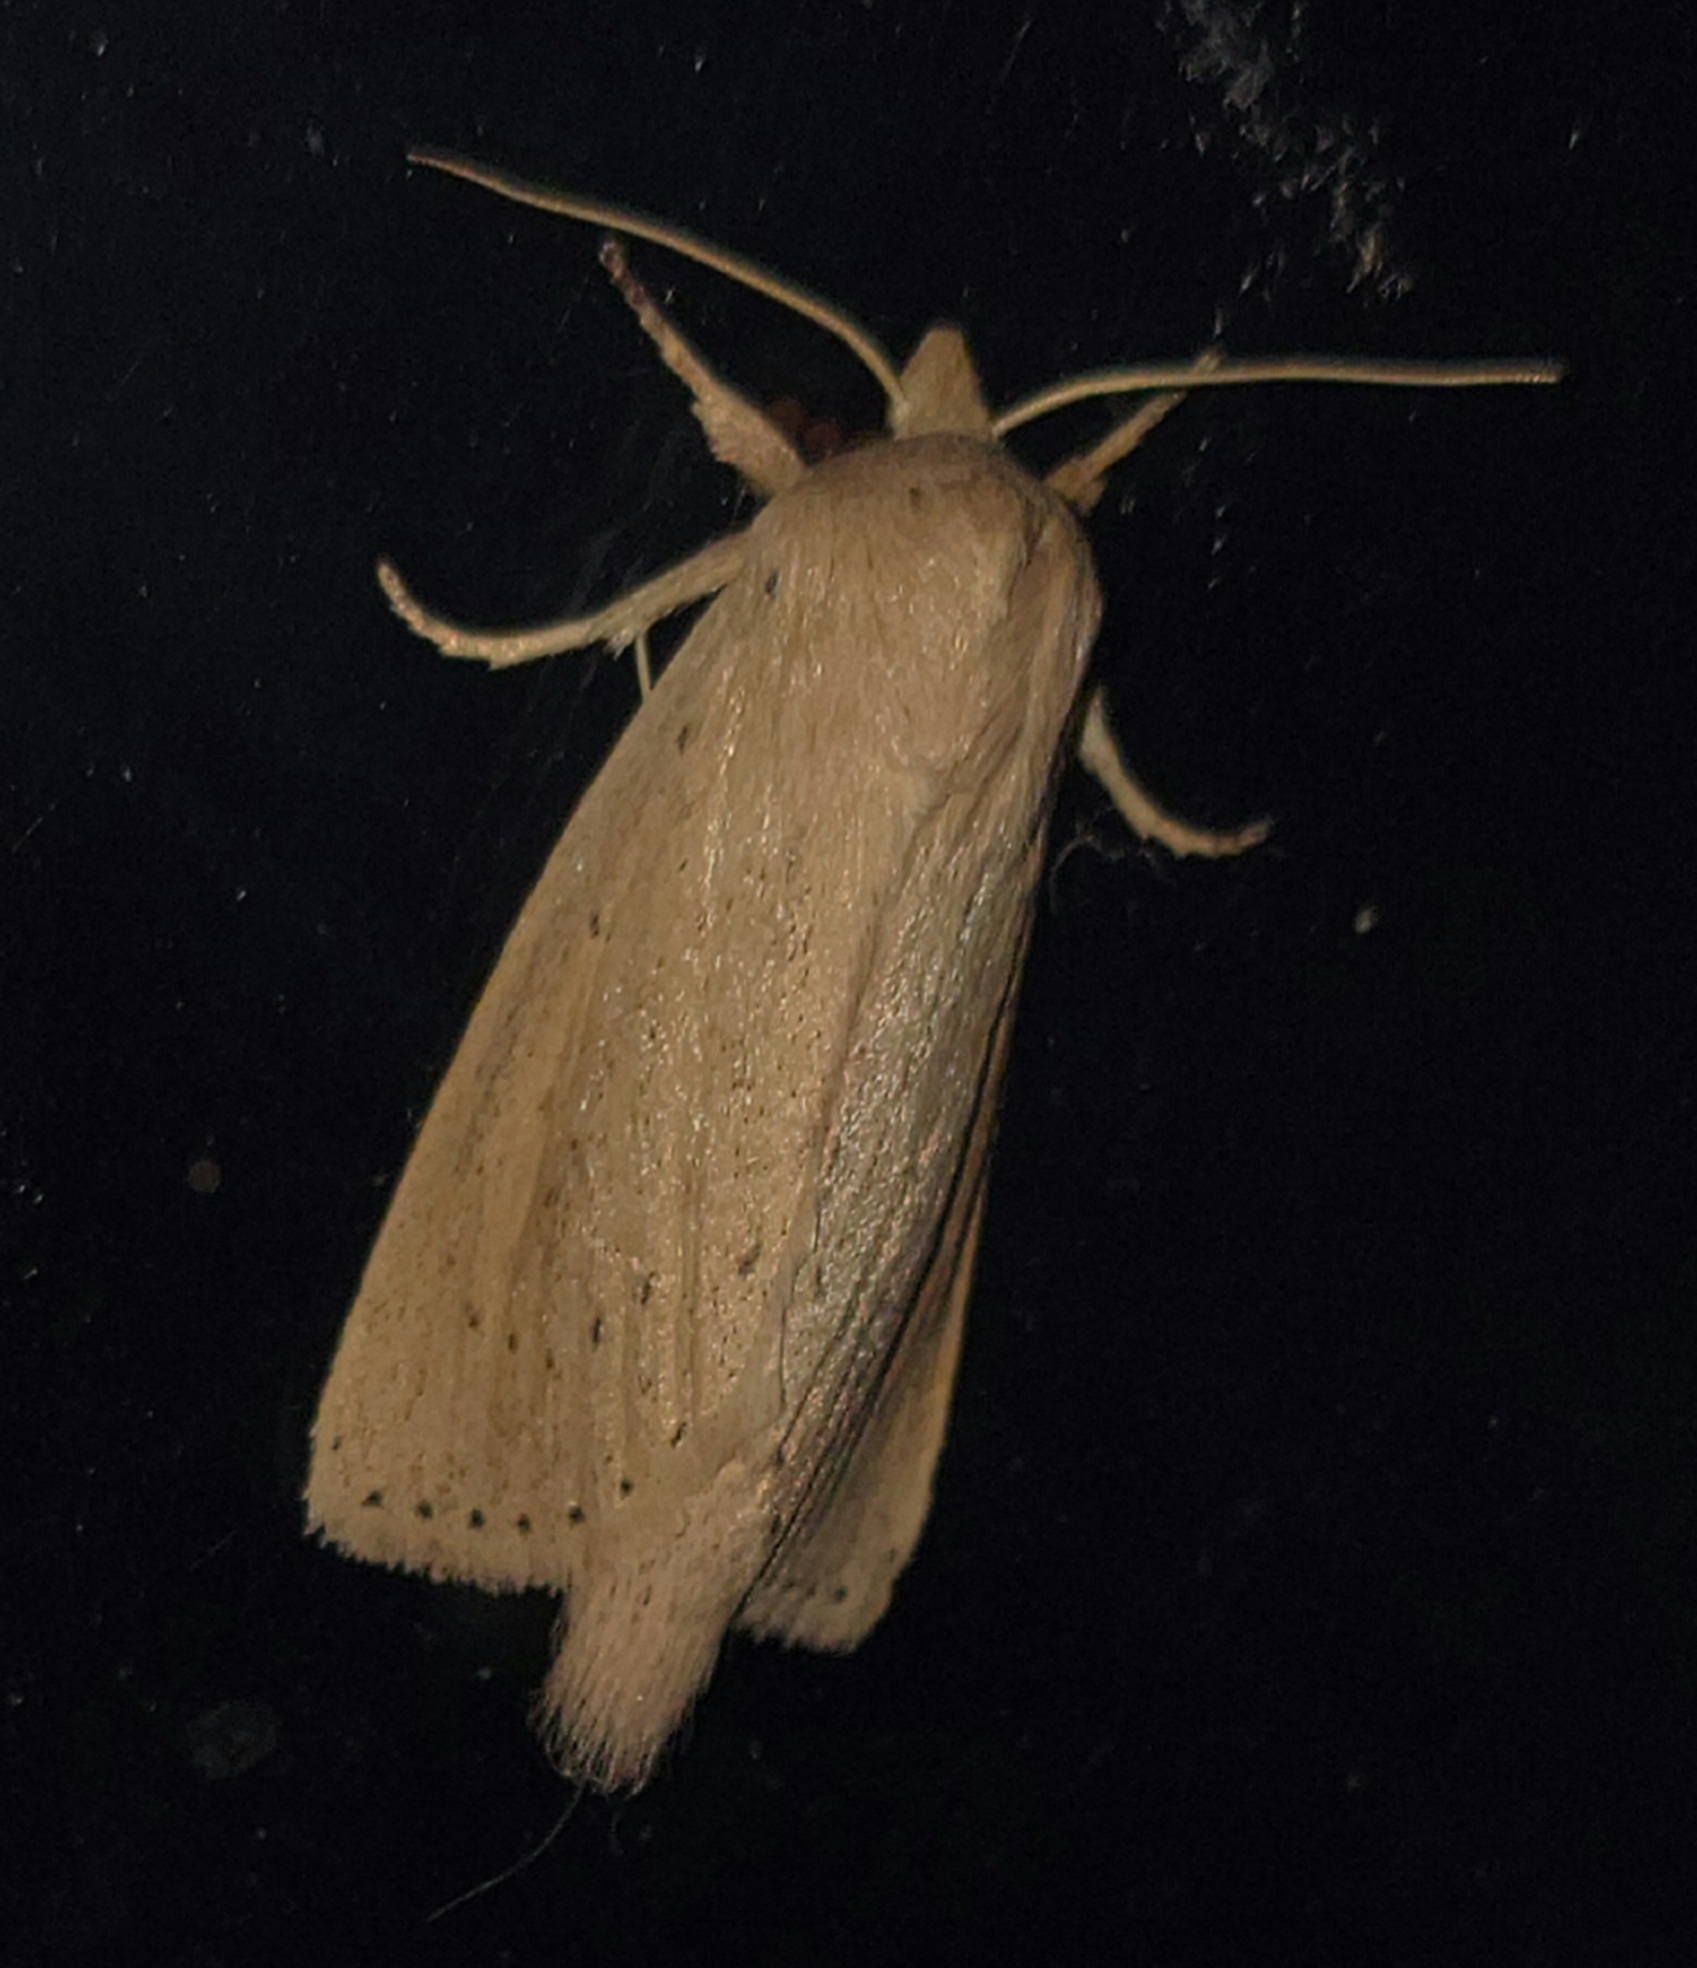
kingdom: Animalia
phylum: Arthropoda
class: Insecta
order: Lepidoptera
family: Noctuidae
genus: Globia
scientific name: Globia oblonga
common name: Oblong sedge borer moth
